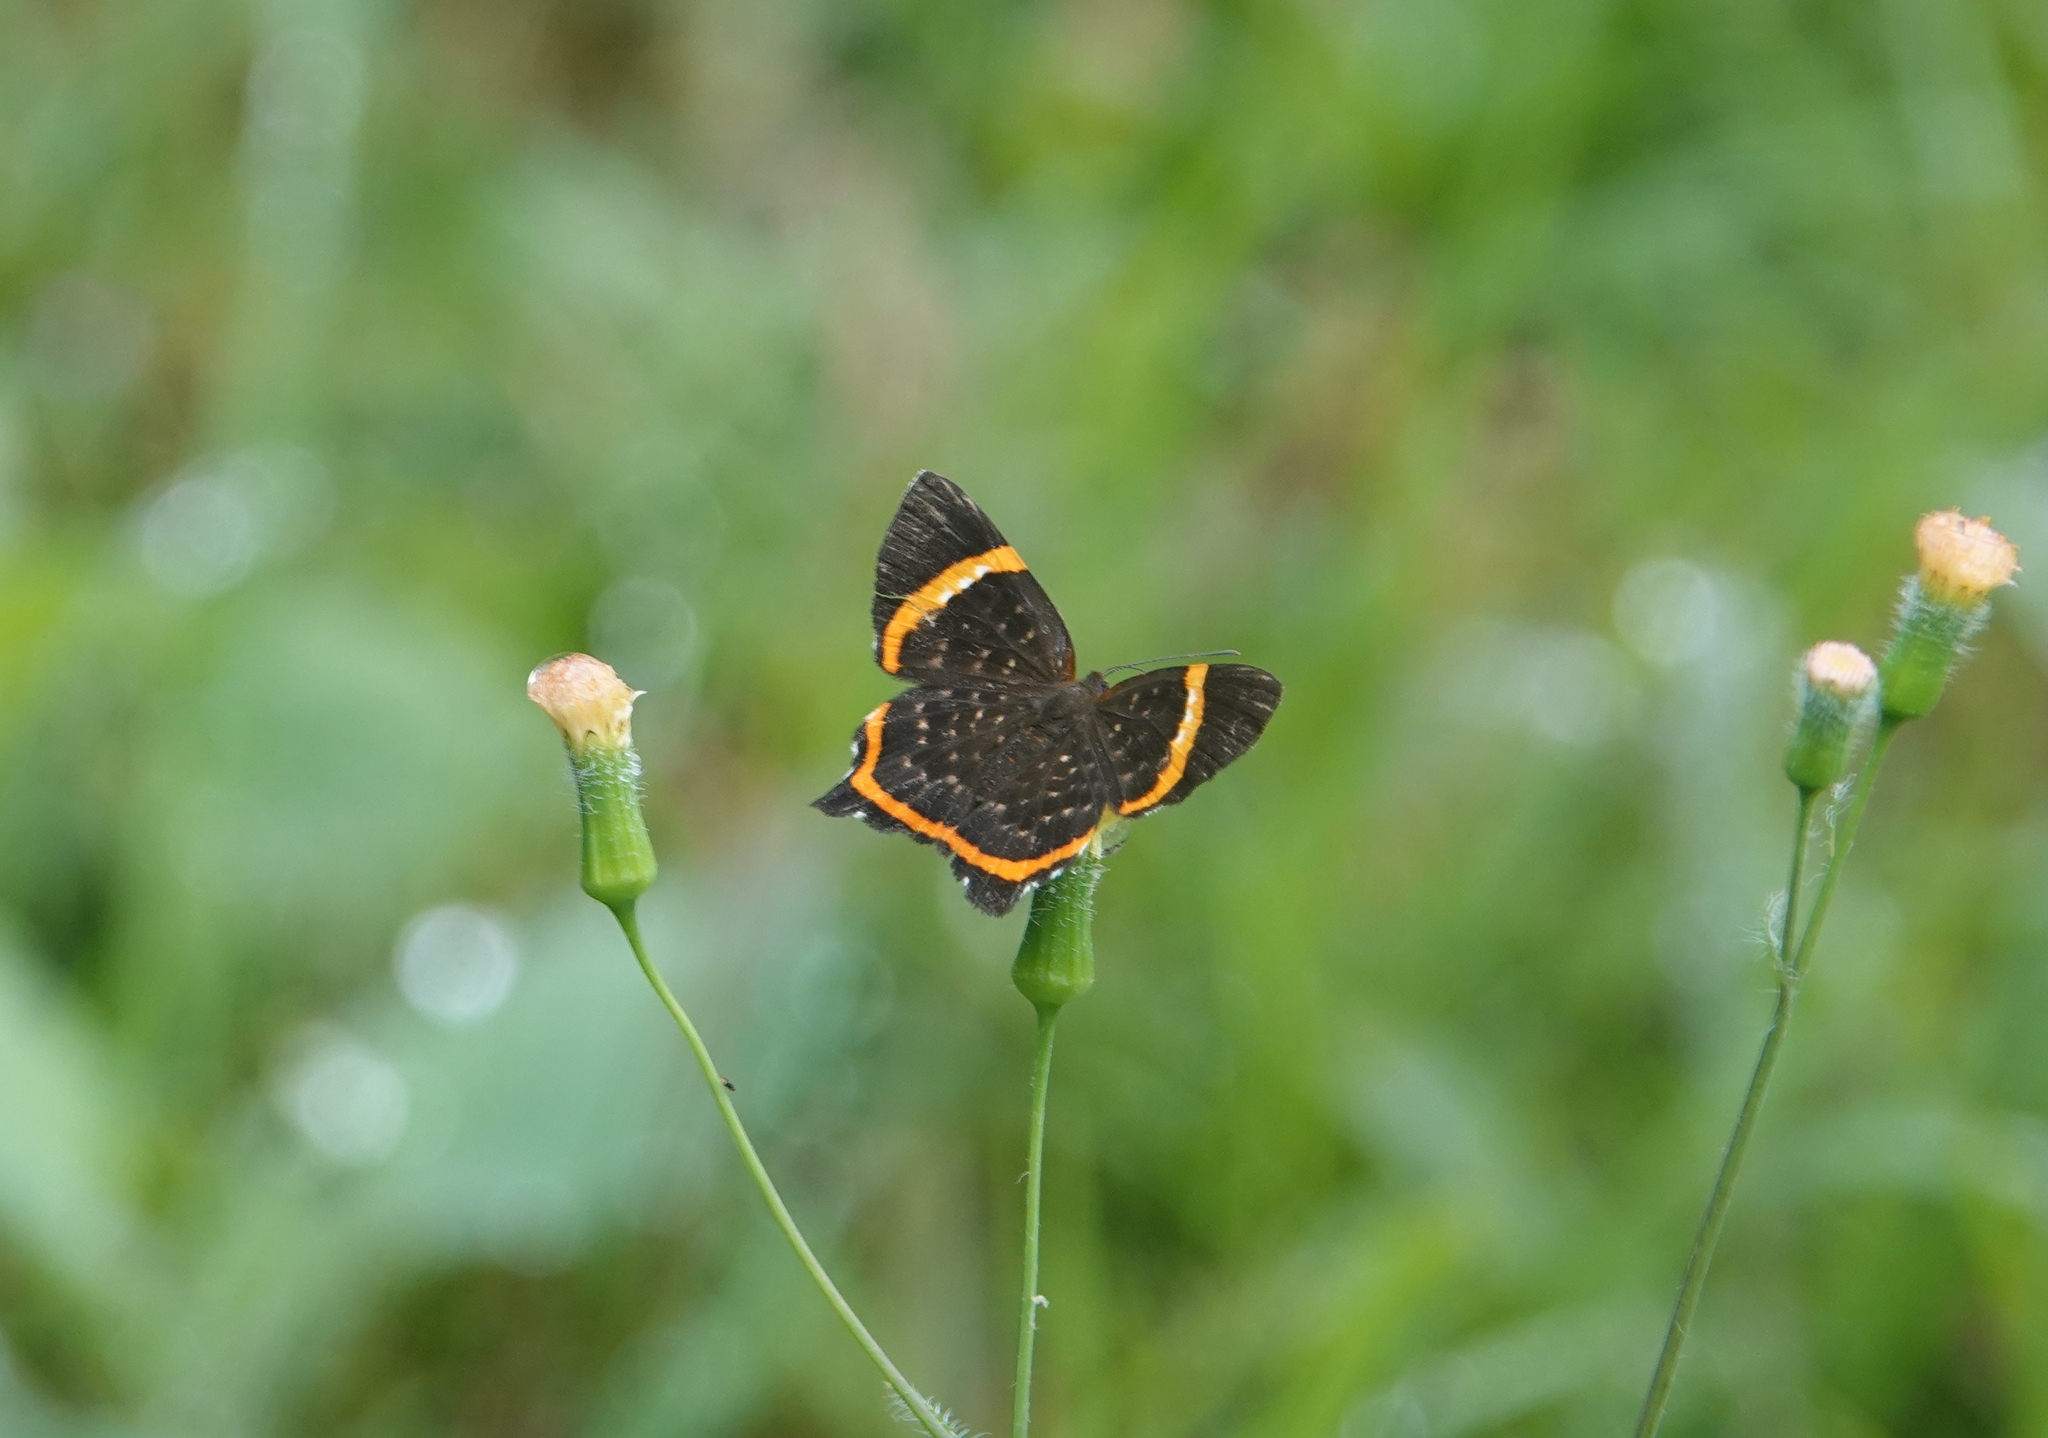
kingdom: Animalia
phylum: Arthropoda
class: Insecta
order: Lepidoptera
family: Riodinidae
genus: Riodina
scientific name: Riodina lysippus
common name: Lysippus metalmark
